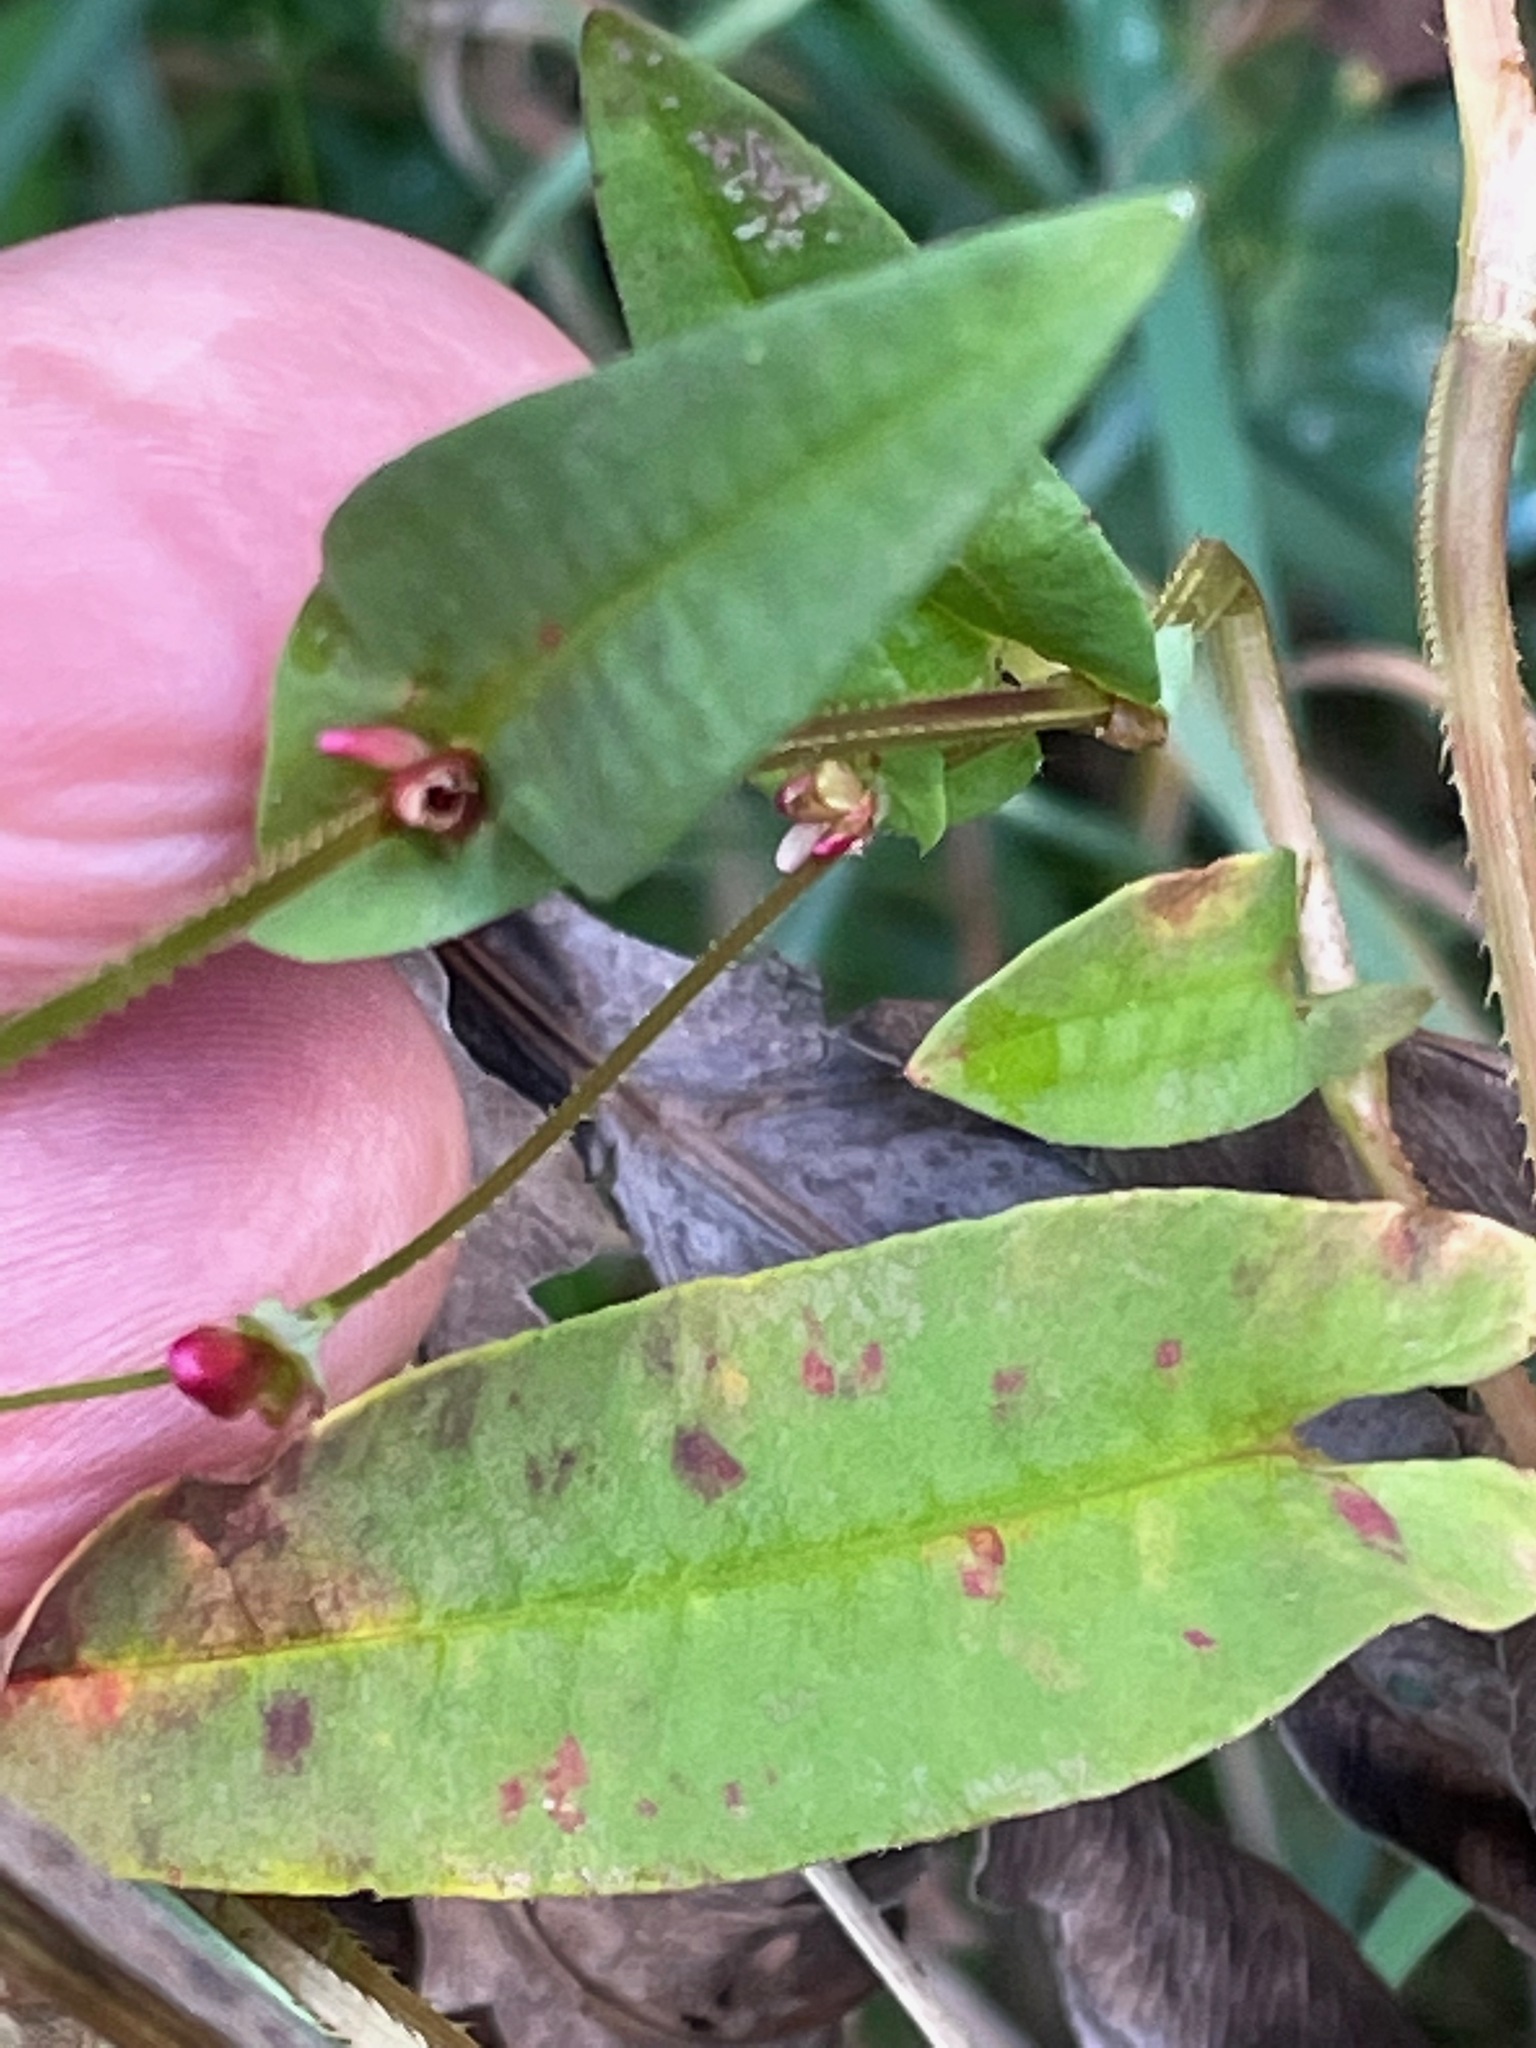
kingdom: Plantae
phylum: Tracheophyta
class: Magnoliopsida
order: Caryophyllales
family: Polygonaceae
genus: Persicaria
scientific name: Persicaria sagittata
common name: American tearthumb
